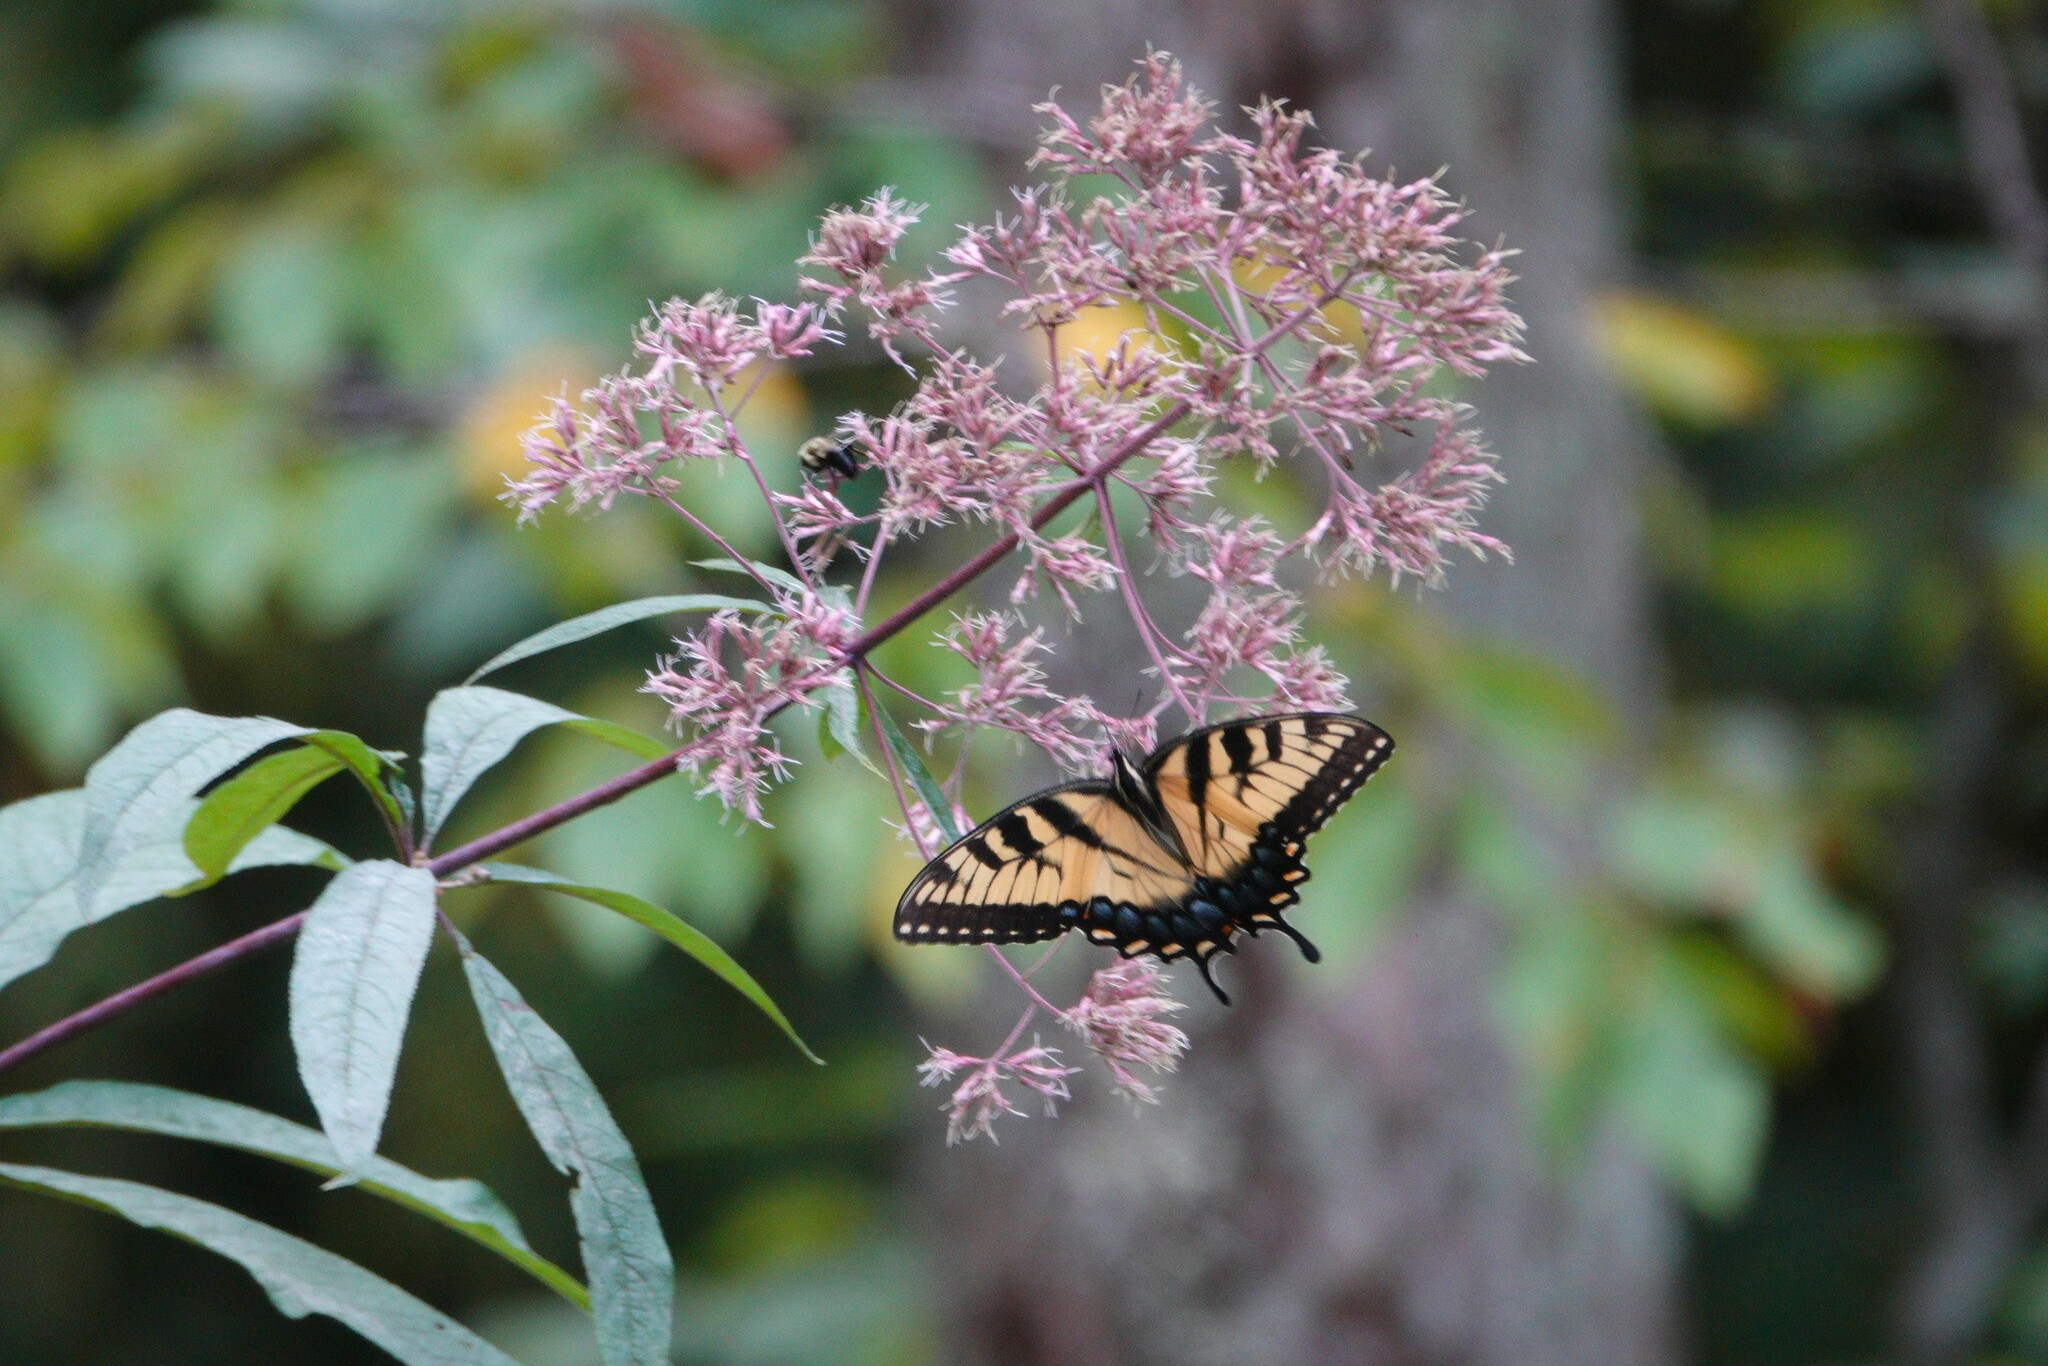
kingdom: Animalia
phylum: Arthropoda
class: Insecta
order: Lepidoptera
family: Papilionidae
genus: Papilio
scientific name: Papilio glaucus
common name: Tiger swallowtail
